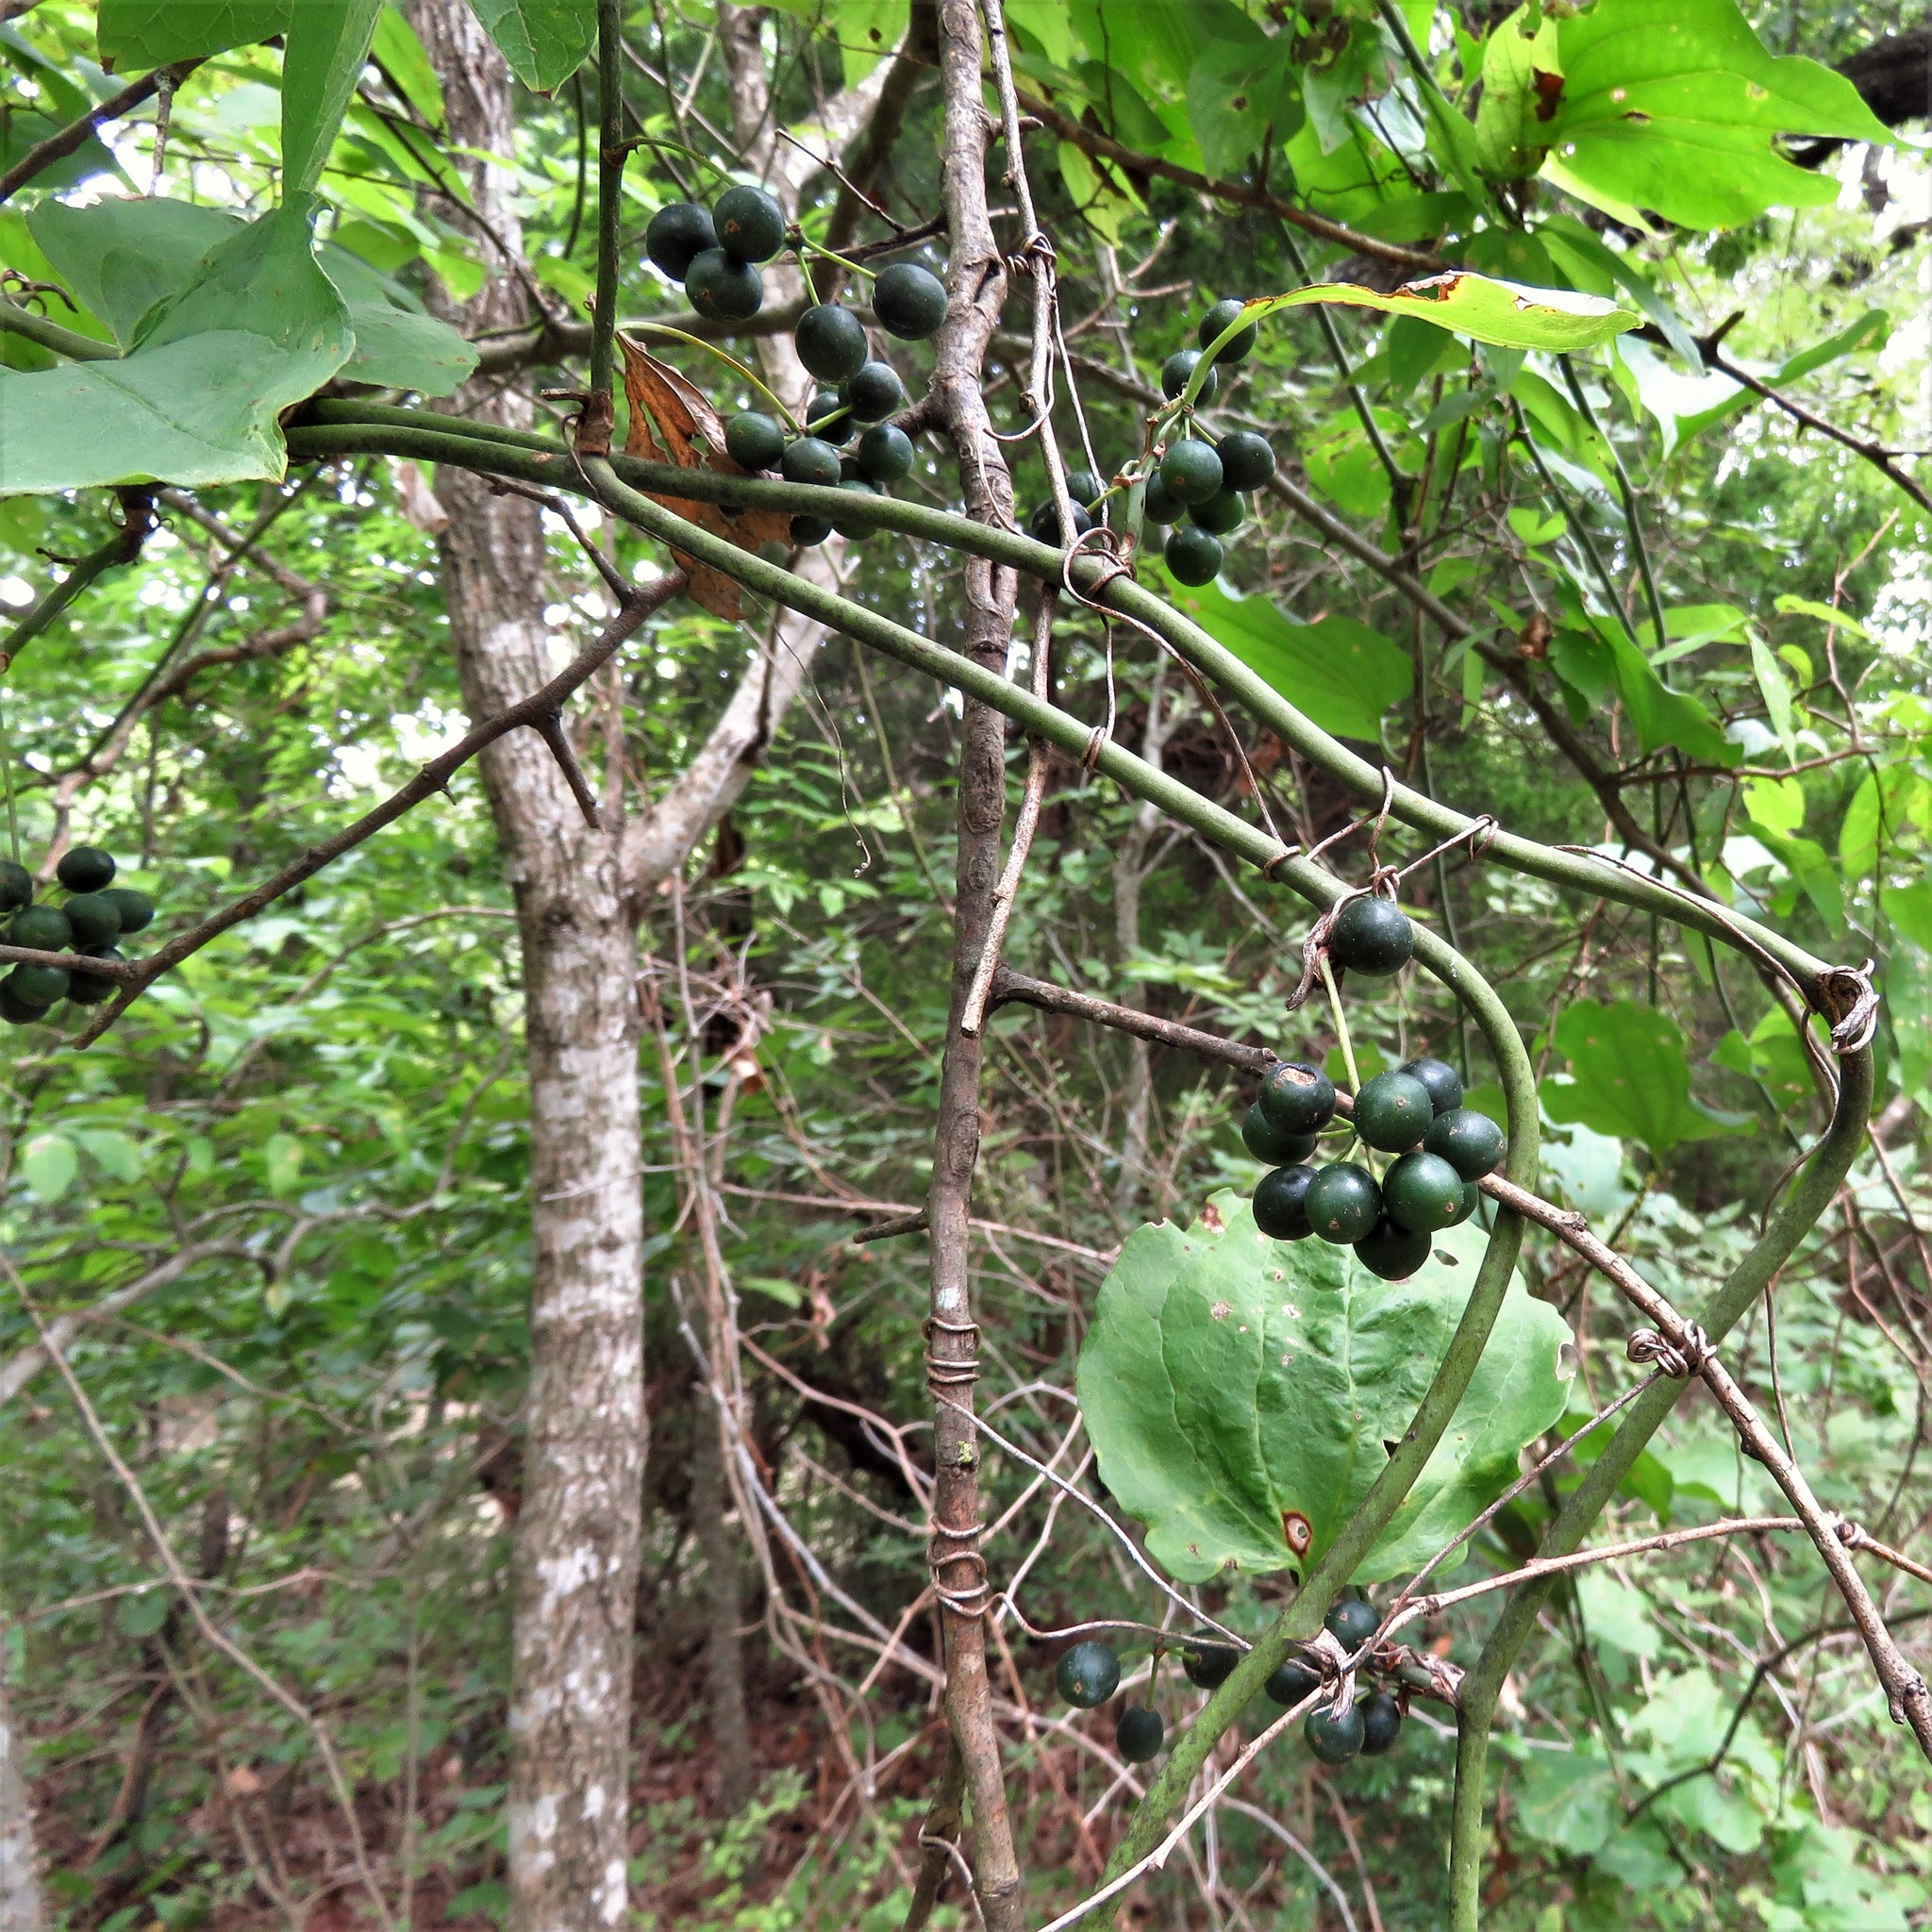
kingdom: Plantae
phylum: Tracheophyta
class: Liliopsida
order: Liliales
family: Smilacaceae
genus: Smilax
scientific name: Smilax tamnoides
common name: Hellfetter
